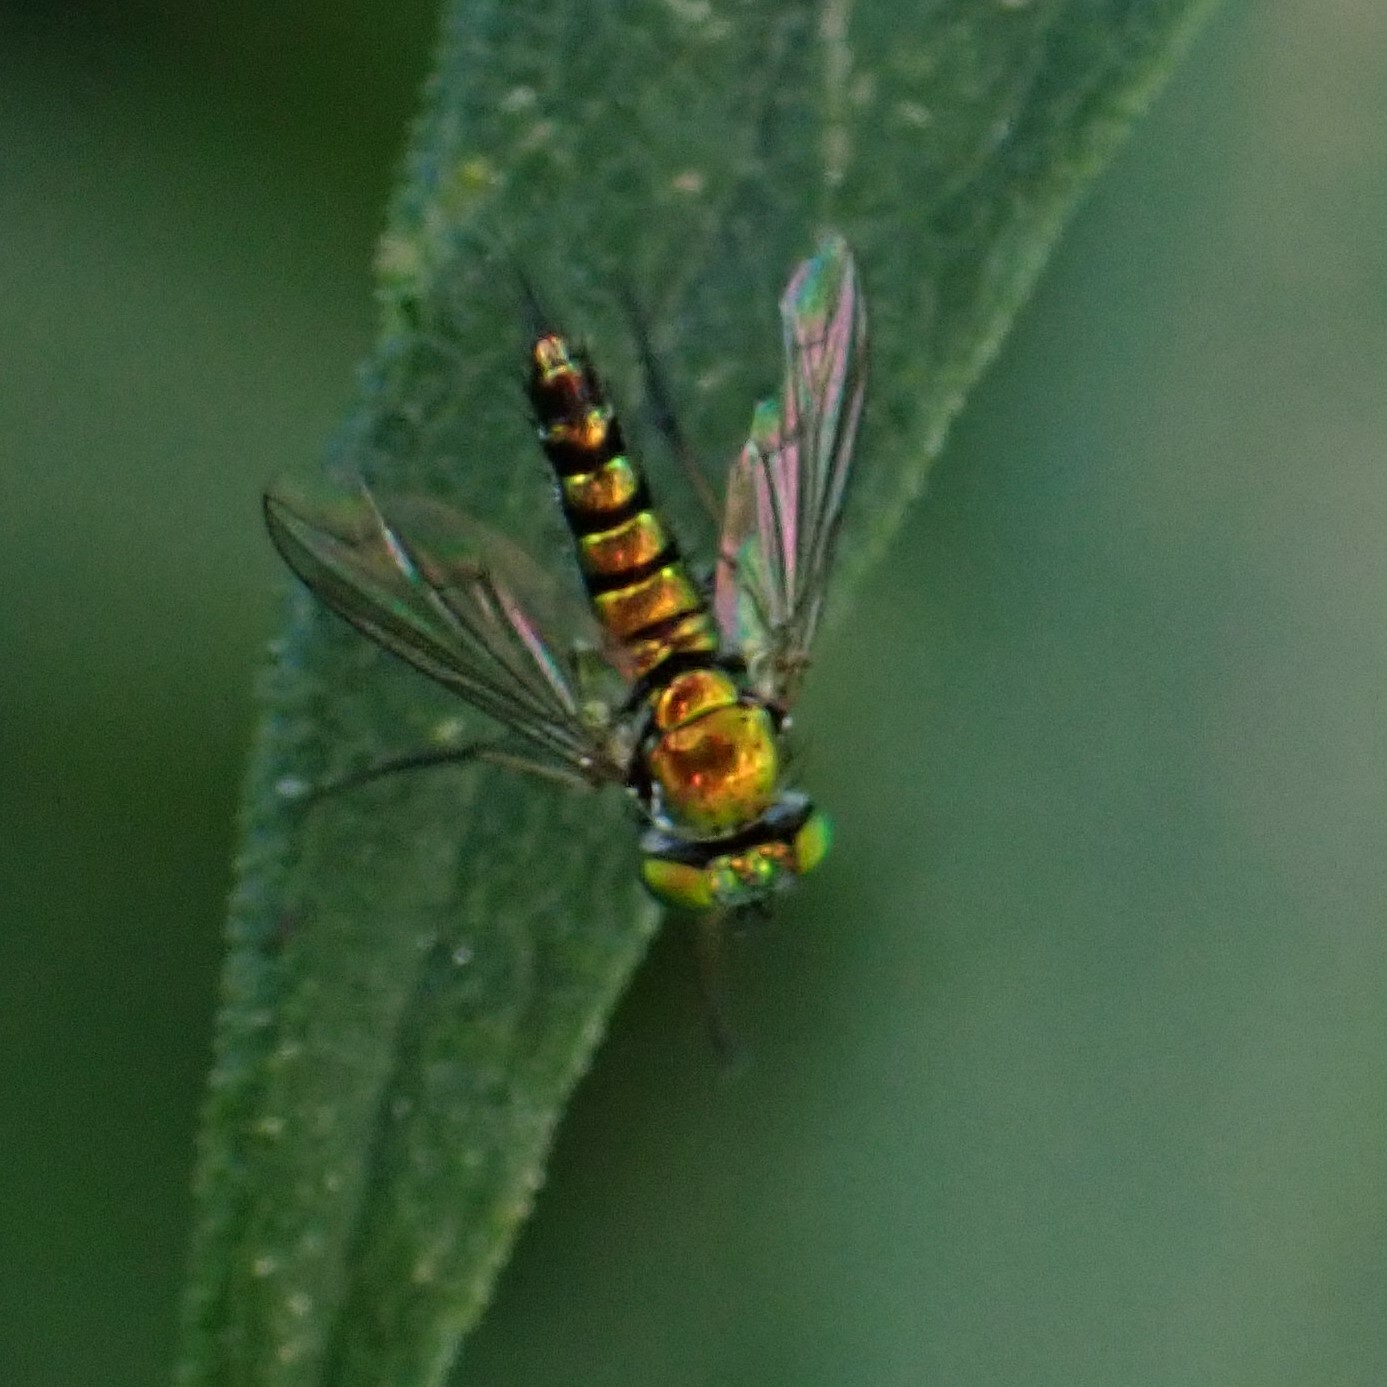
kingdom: Animalia
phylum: Arthropoda
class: Insecta
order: Diptera
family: Dolichopodidae
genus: Condylostylus
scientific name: Condylostylus caudatus
